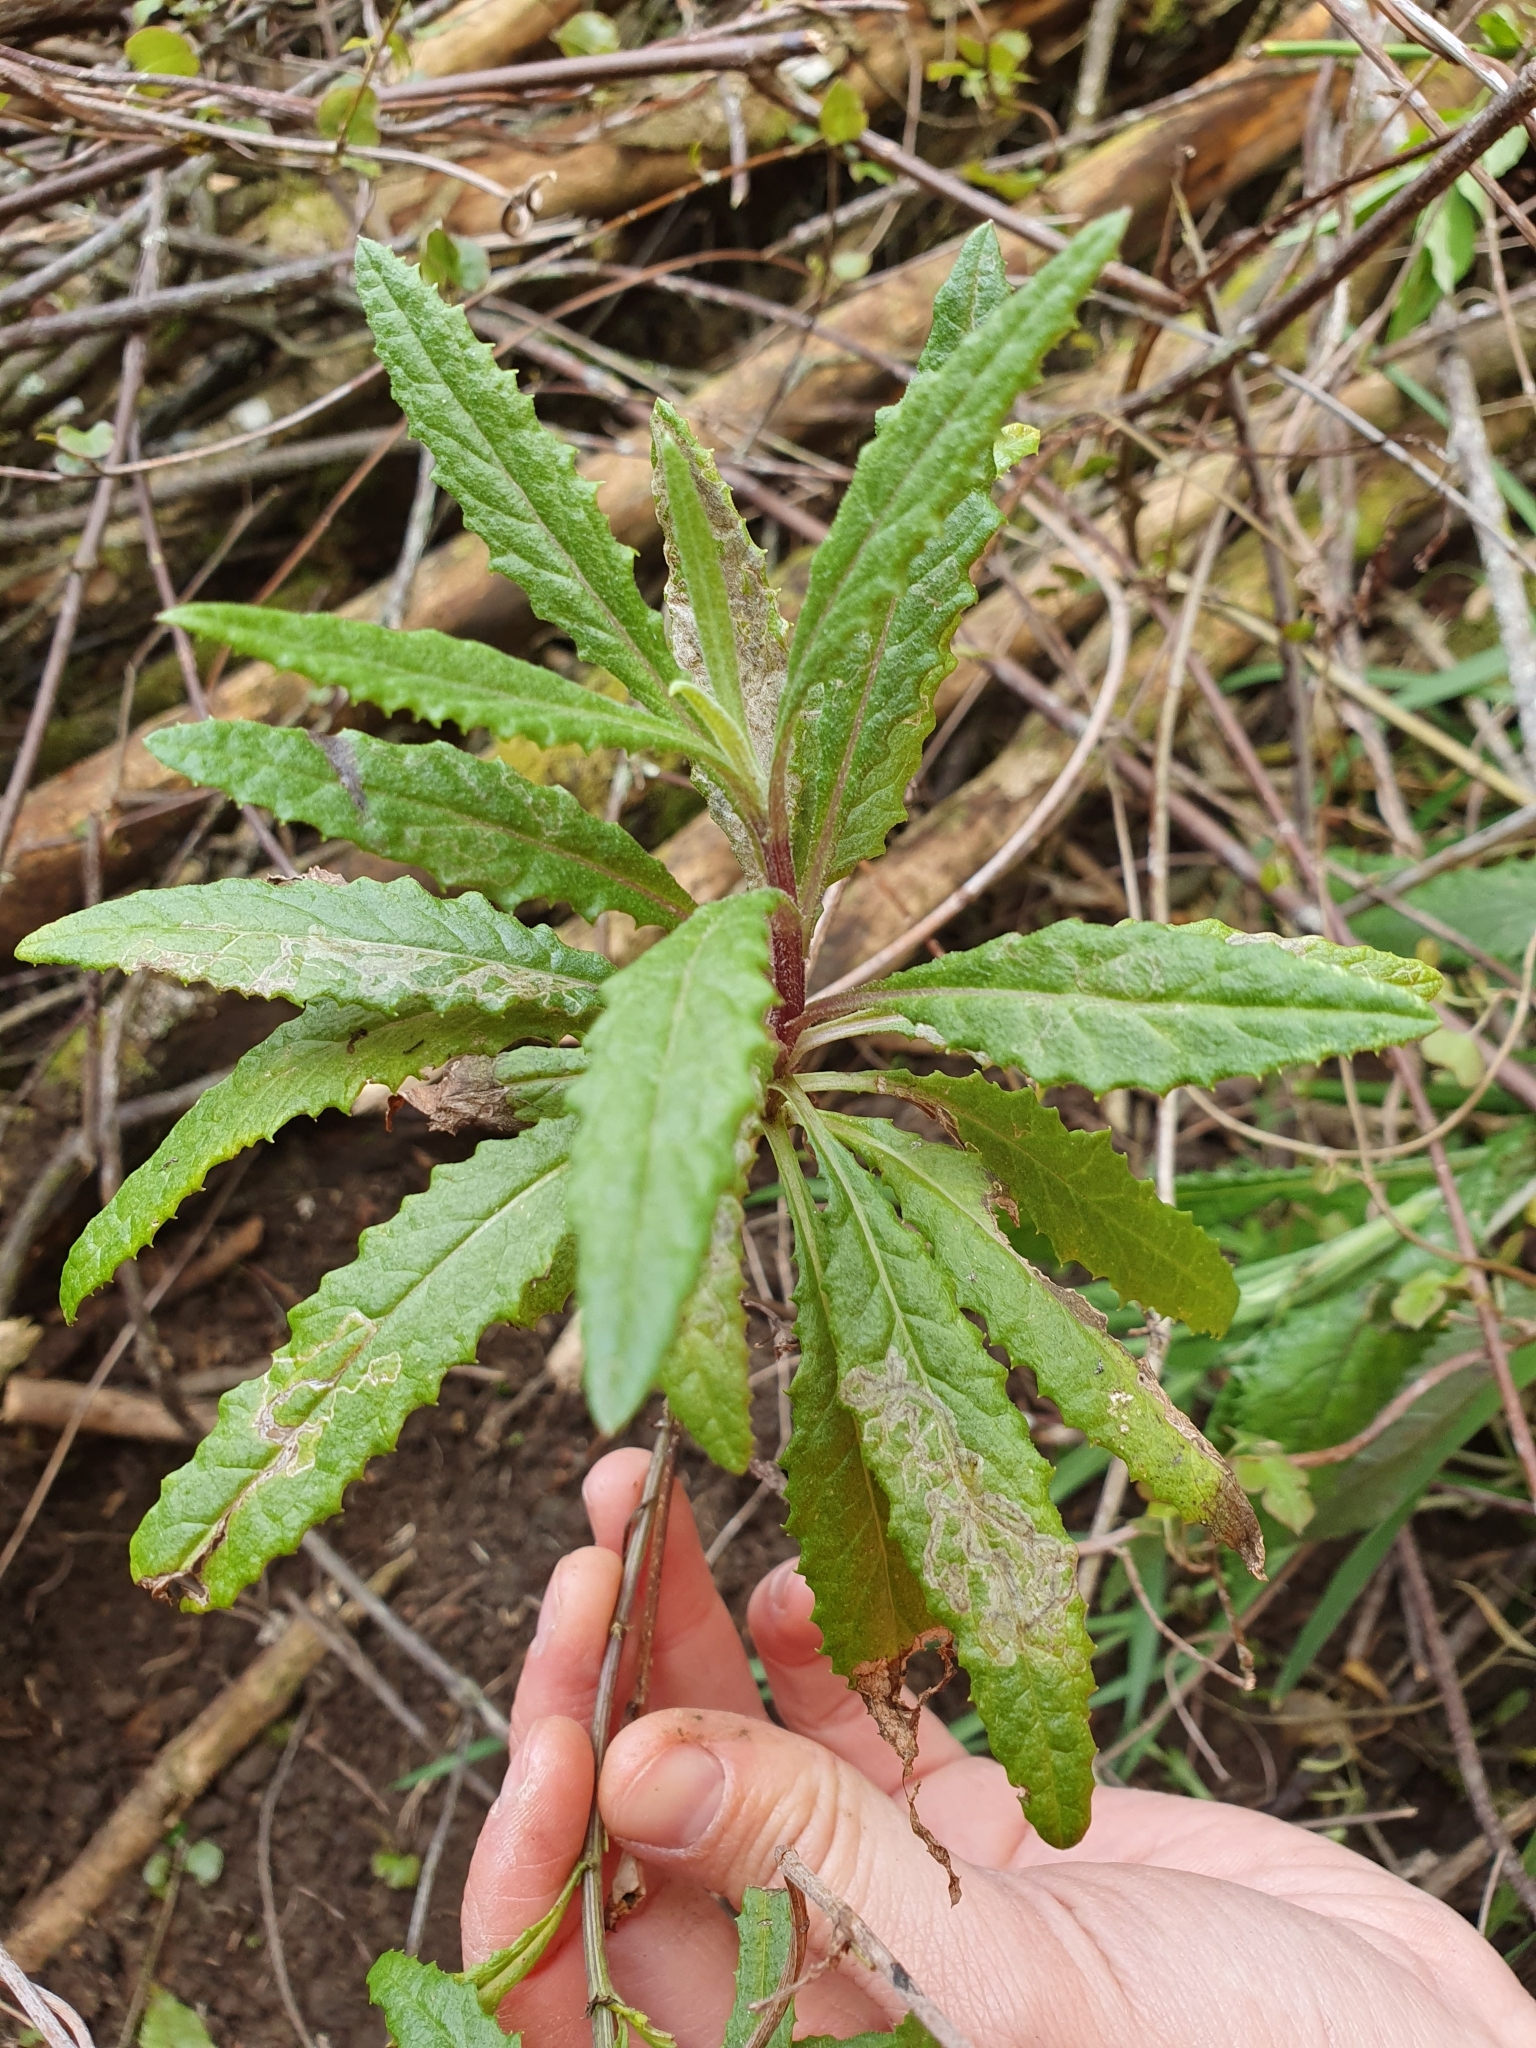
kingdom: Plantae
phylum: Tracheophyta
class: Magnoliopsida
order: Asterales
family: Asteraceae
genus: Senecio
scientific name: Senecio minimus
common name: Toothed fireweed
